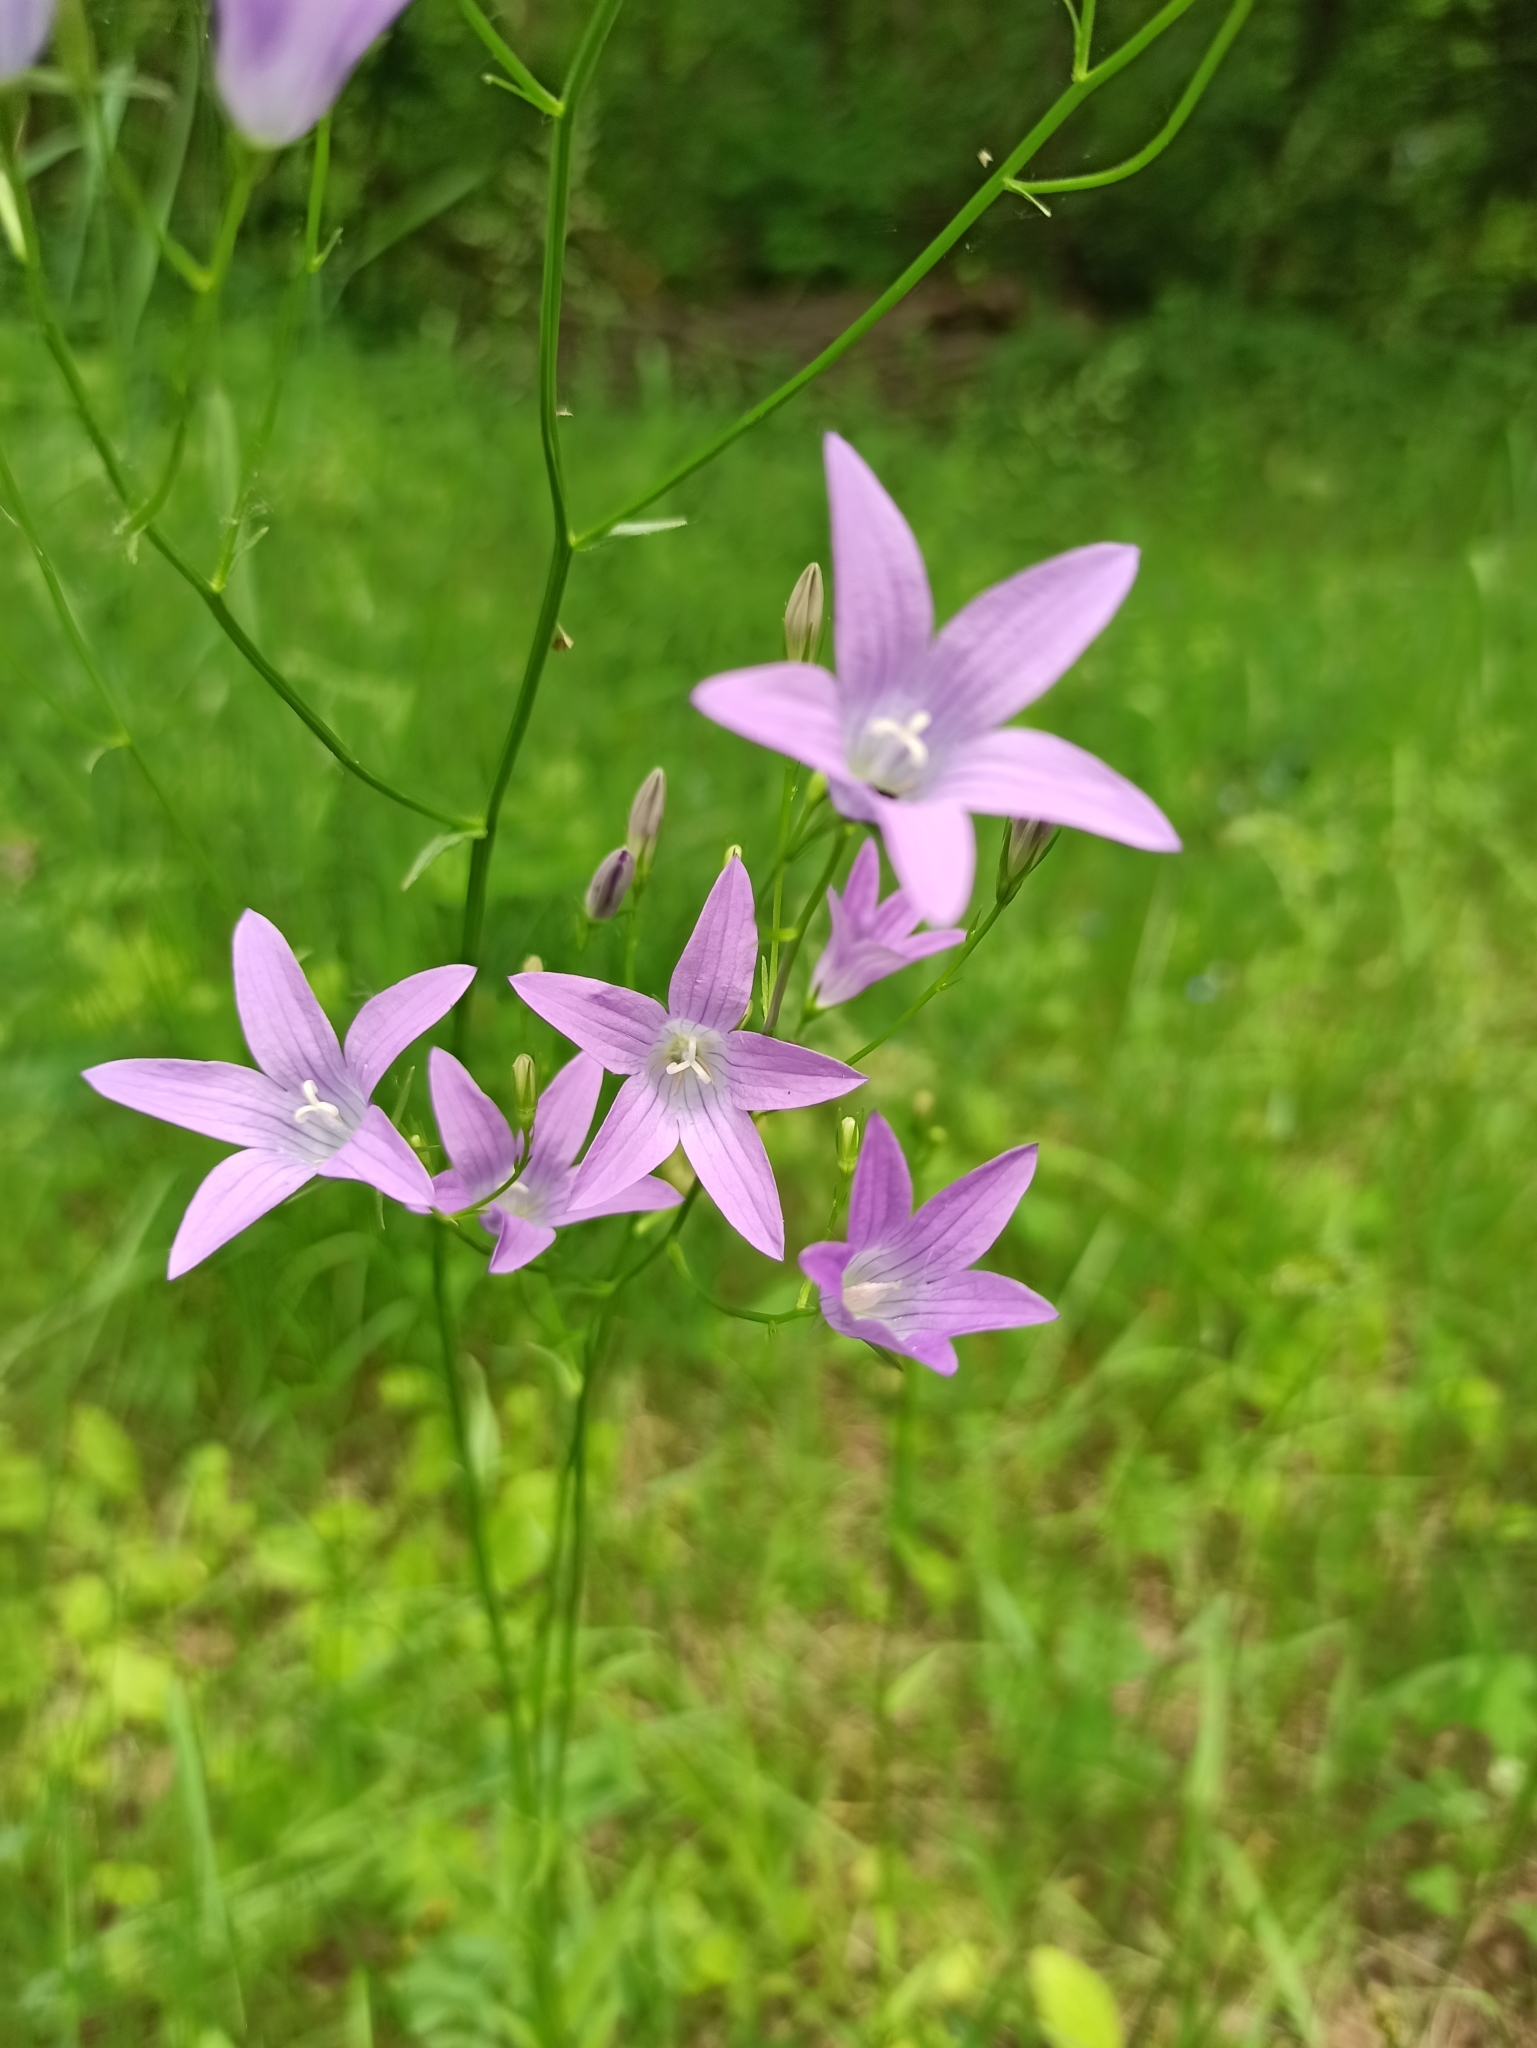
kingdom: Plantae
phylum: Tracheophyta
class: Magnoliopsida
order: Asterales
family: Campanulaceae
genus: Campanula
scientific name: Campanula patula
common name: Spreading bellflower
